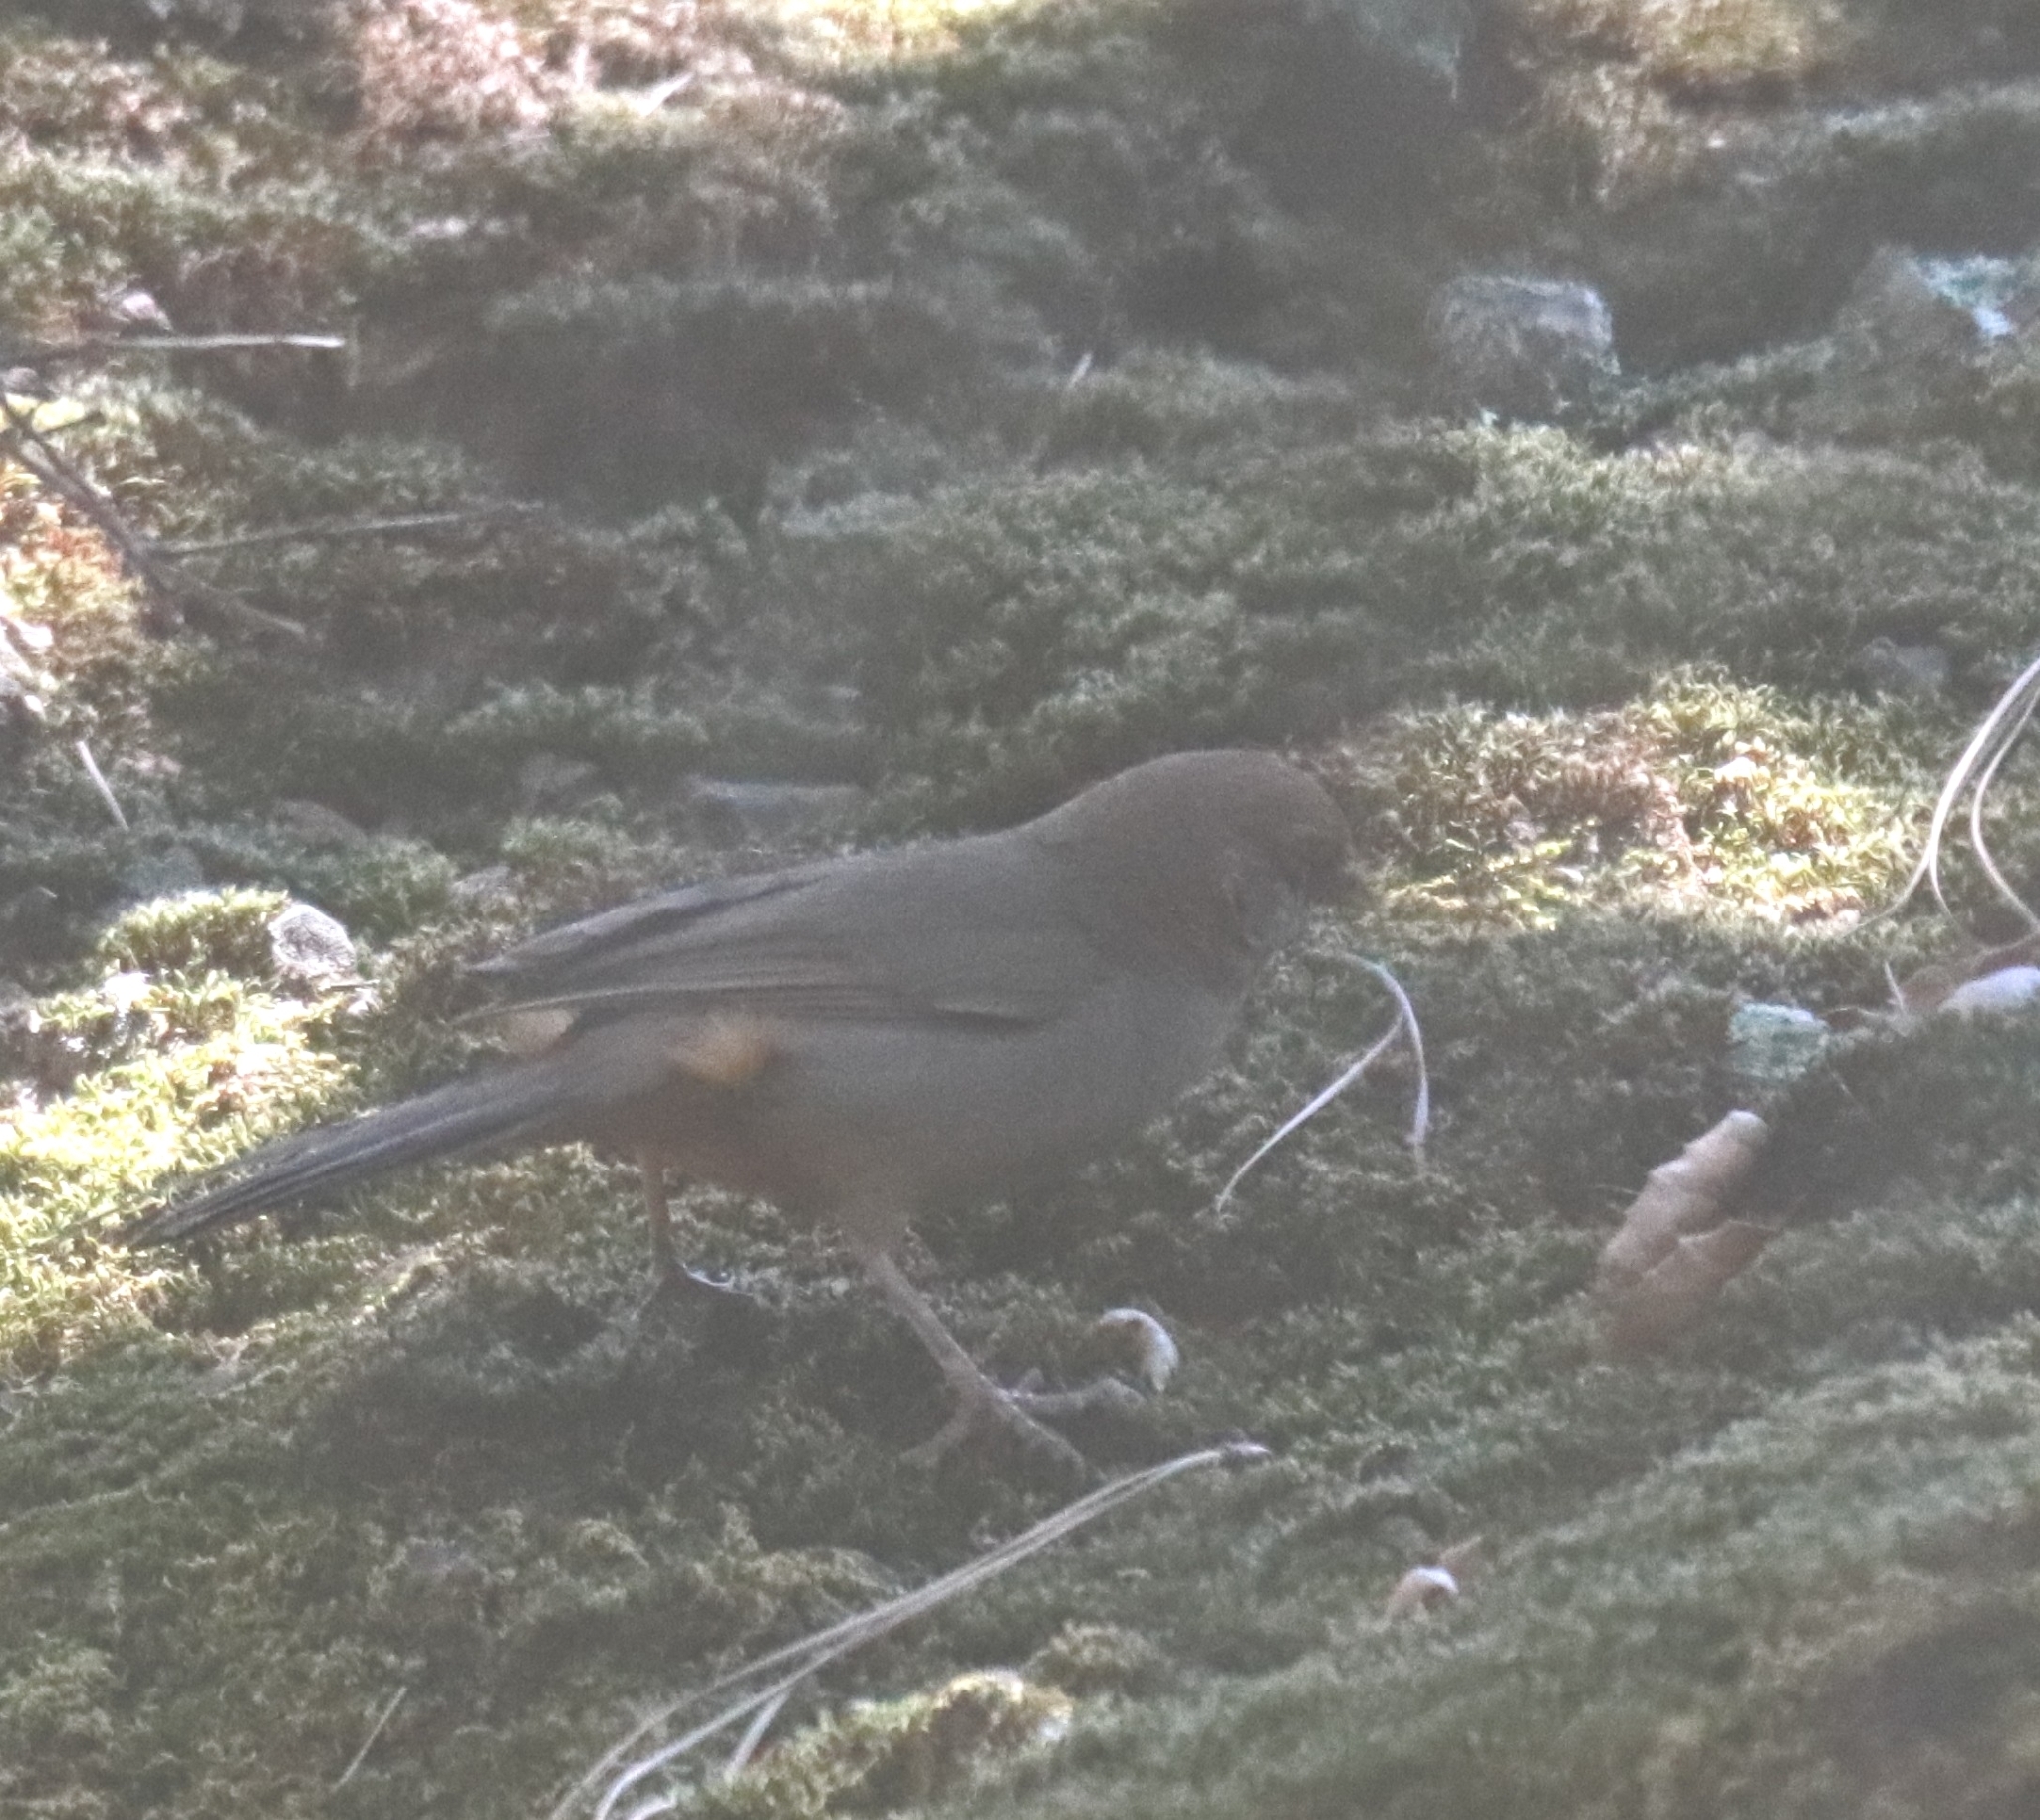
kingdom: Animalia
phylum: Chordata
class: Aves
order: Passeriformes
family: Passerellidae
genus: Melozone
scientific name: Melozone crissalis
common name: California towhee
